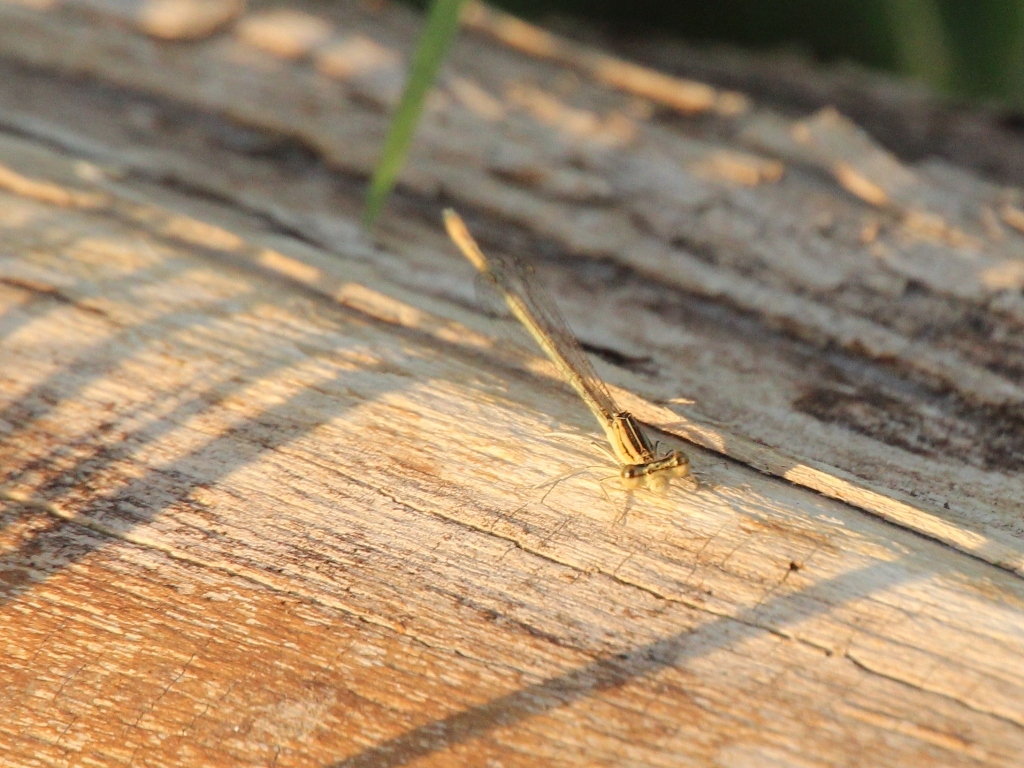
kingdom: Animalia
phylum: Arthropoda
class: Insecta
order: Odonata
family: Platycnemididae
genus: Platycnemis
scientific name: Platycnemis pennipes
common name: White-legged damselfly
